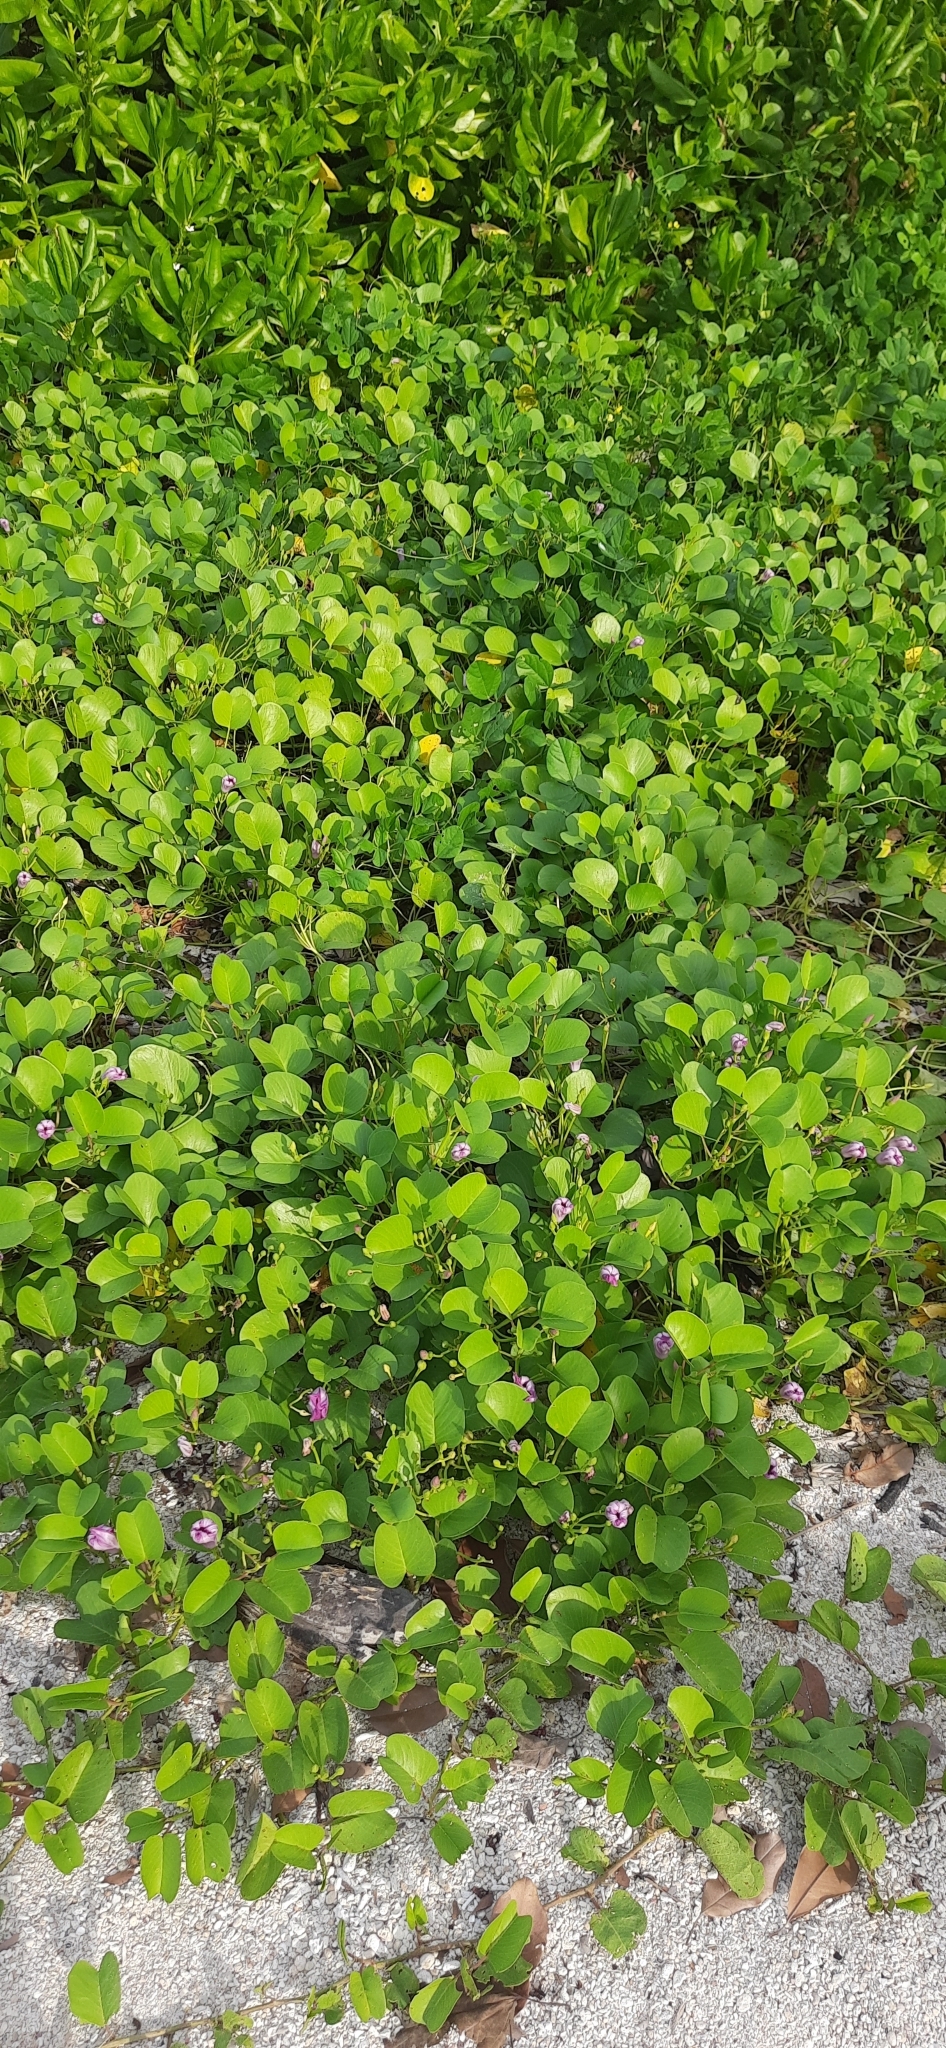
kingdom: Plantae
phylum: Tracheophyta
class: Magnoliopsida
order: Solanales
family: Convolvulaceae
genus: Ipomoea
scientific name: Ipomoea pes-caprae
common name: Beach morning glory
